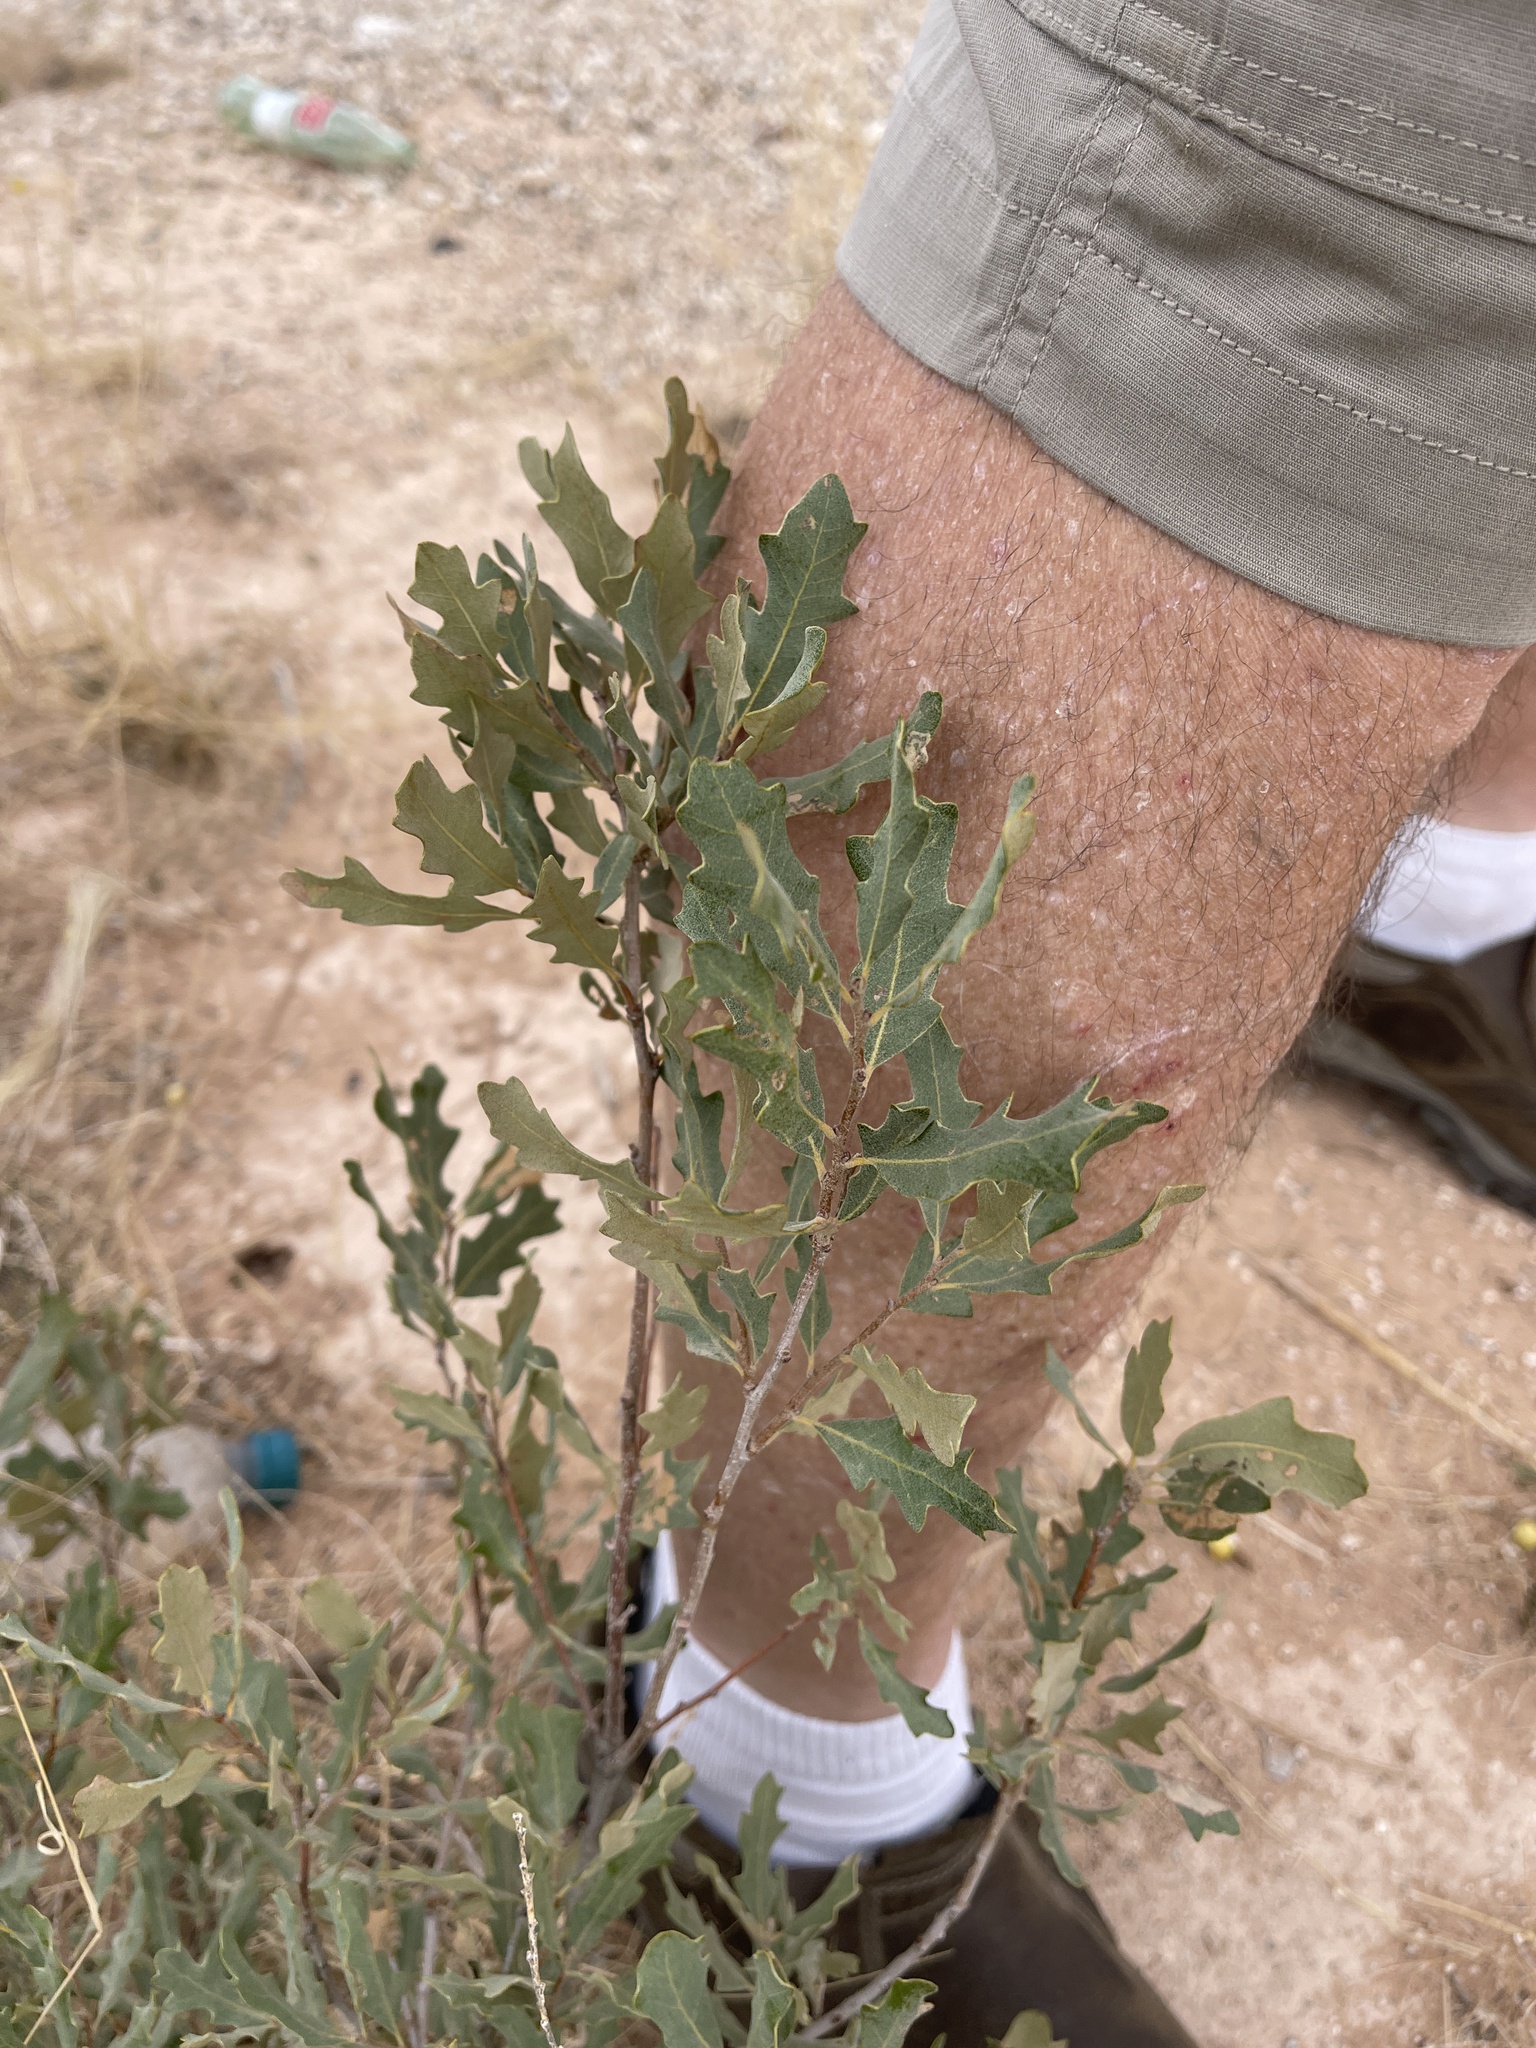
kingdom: Plantae
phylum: Tracheophyta
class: Magnoliopsida
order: Fagales
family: Fagaceae
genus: Quercus
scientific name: Quercus havardii
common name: Shinnery oak
